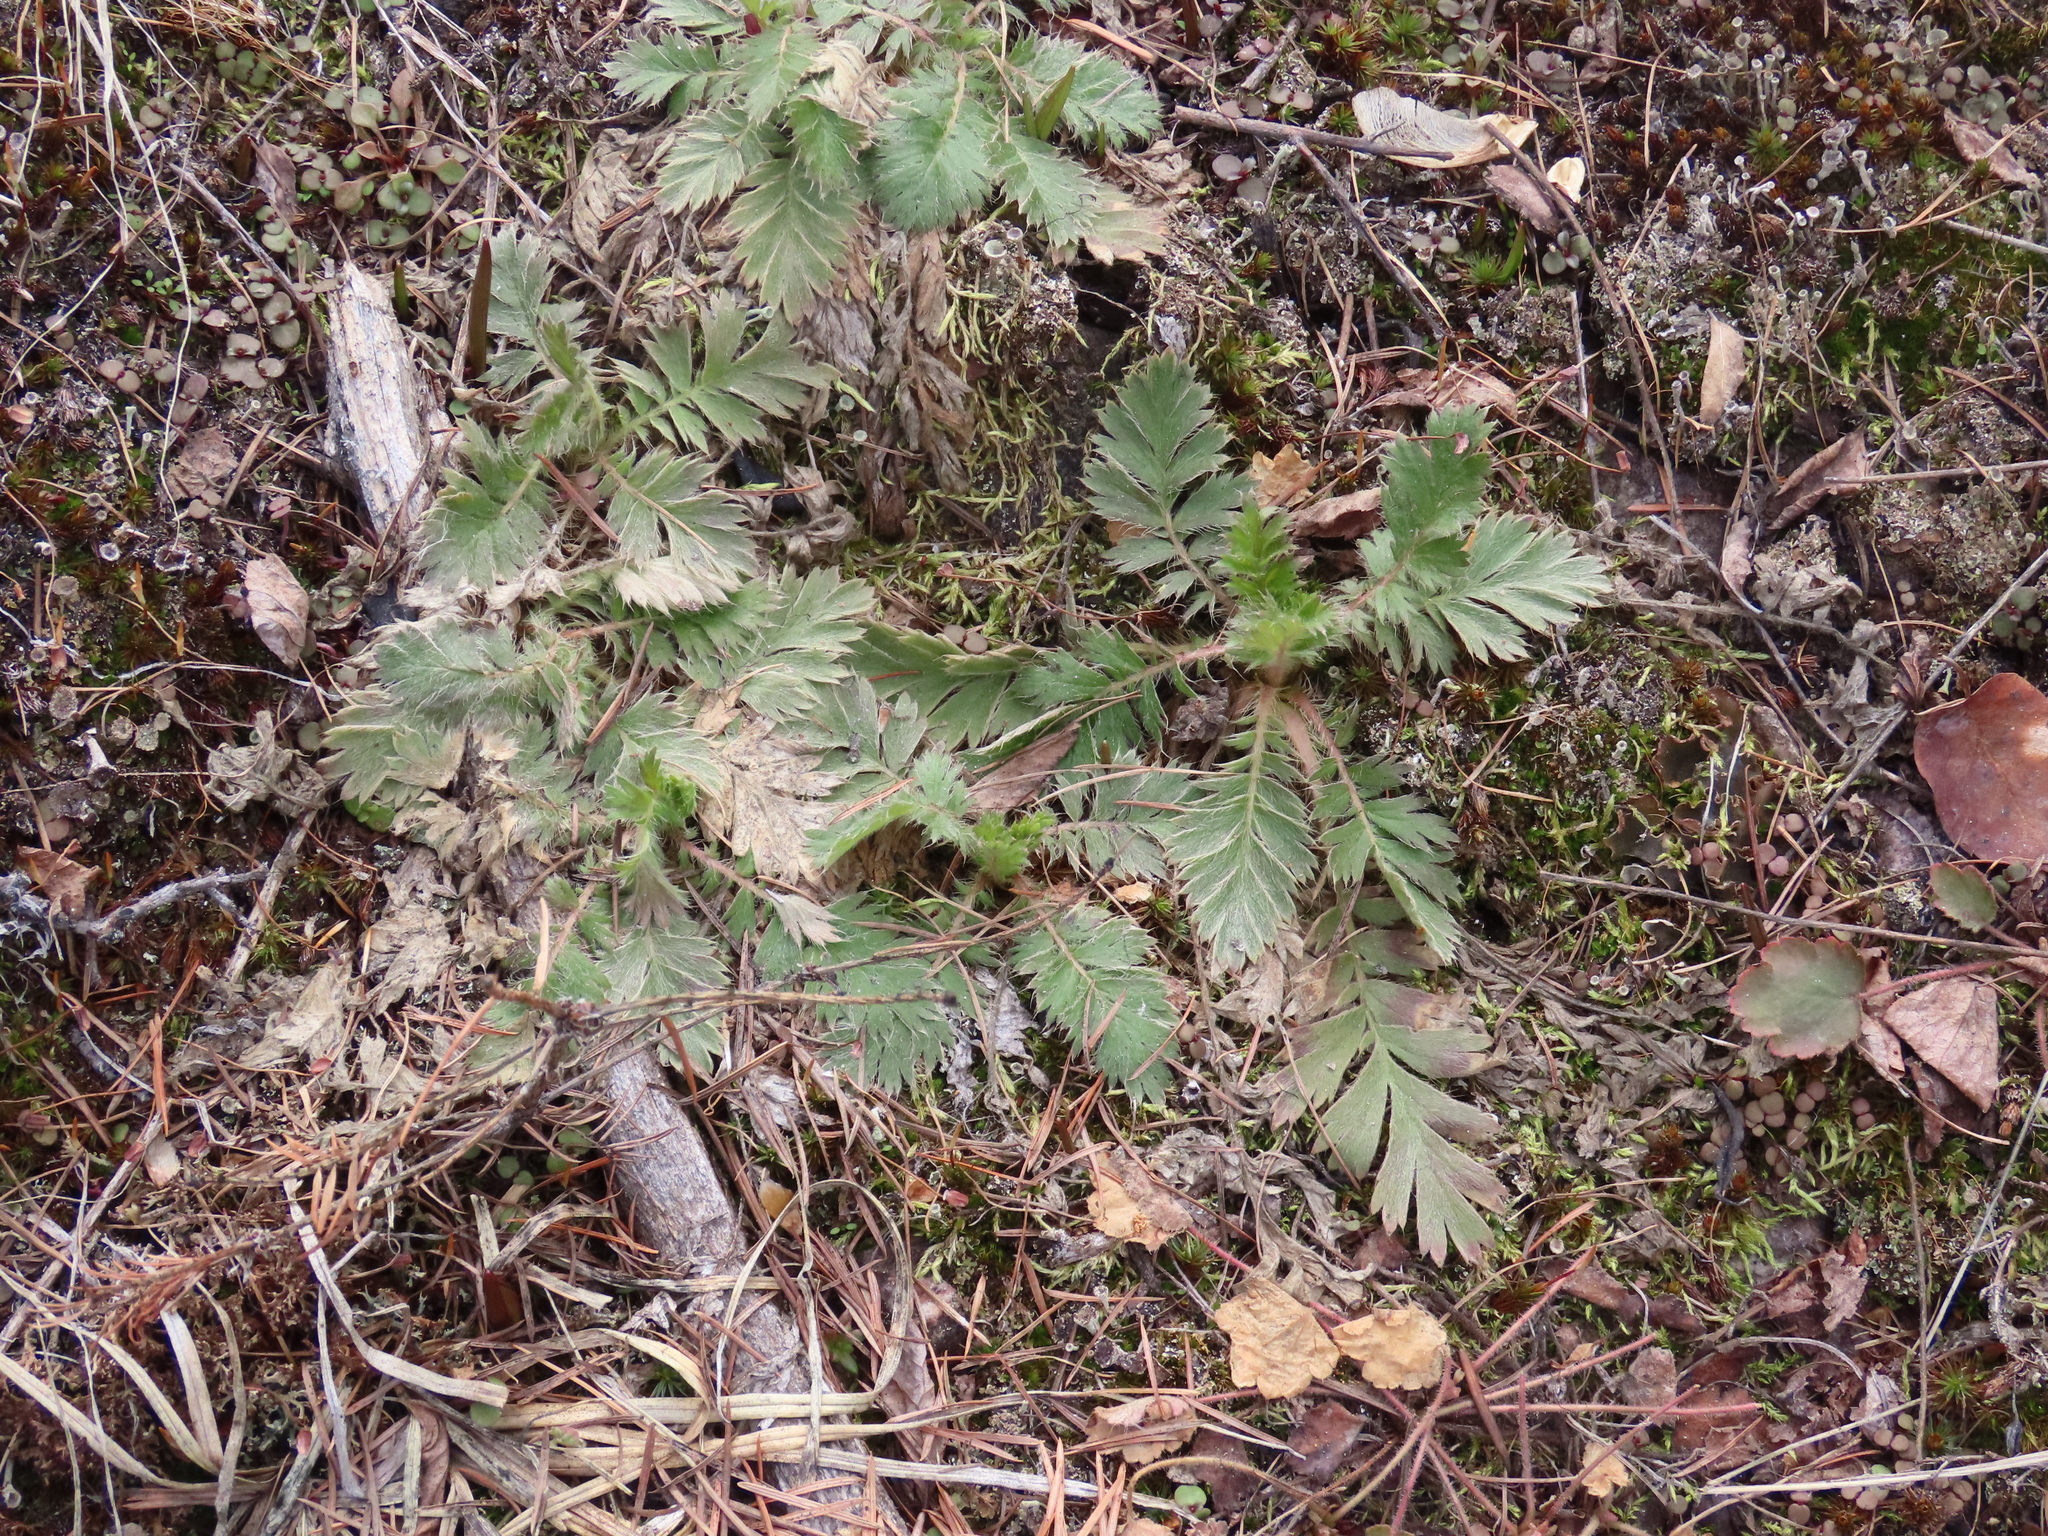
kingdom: Plantae
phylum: Tracheophyta
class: Magnoliopsida
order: Rosales
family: Rosaceae
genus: Geum
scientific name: Geum triflorum
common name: Old man's whiskers
